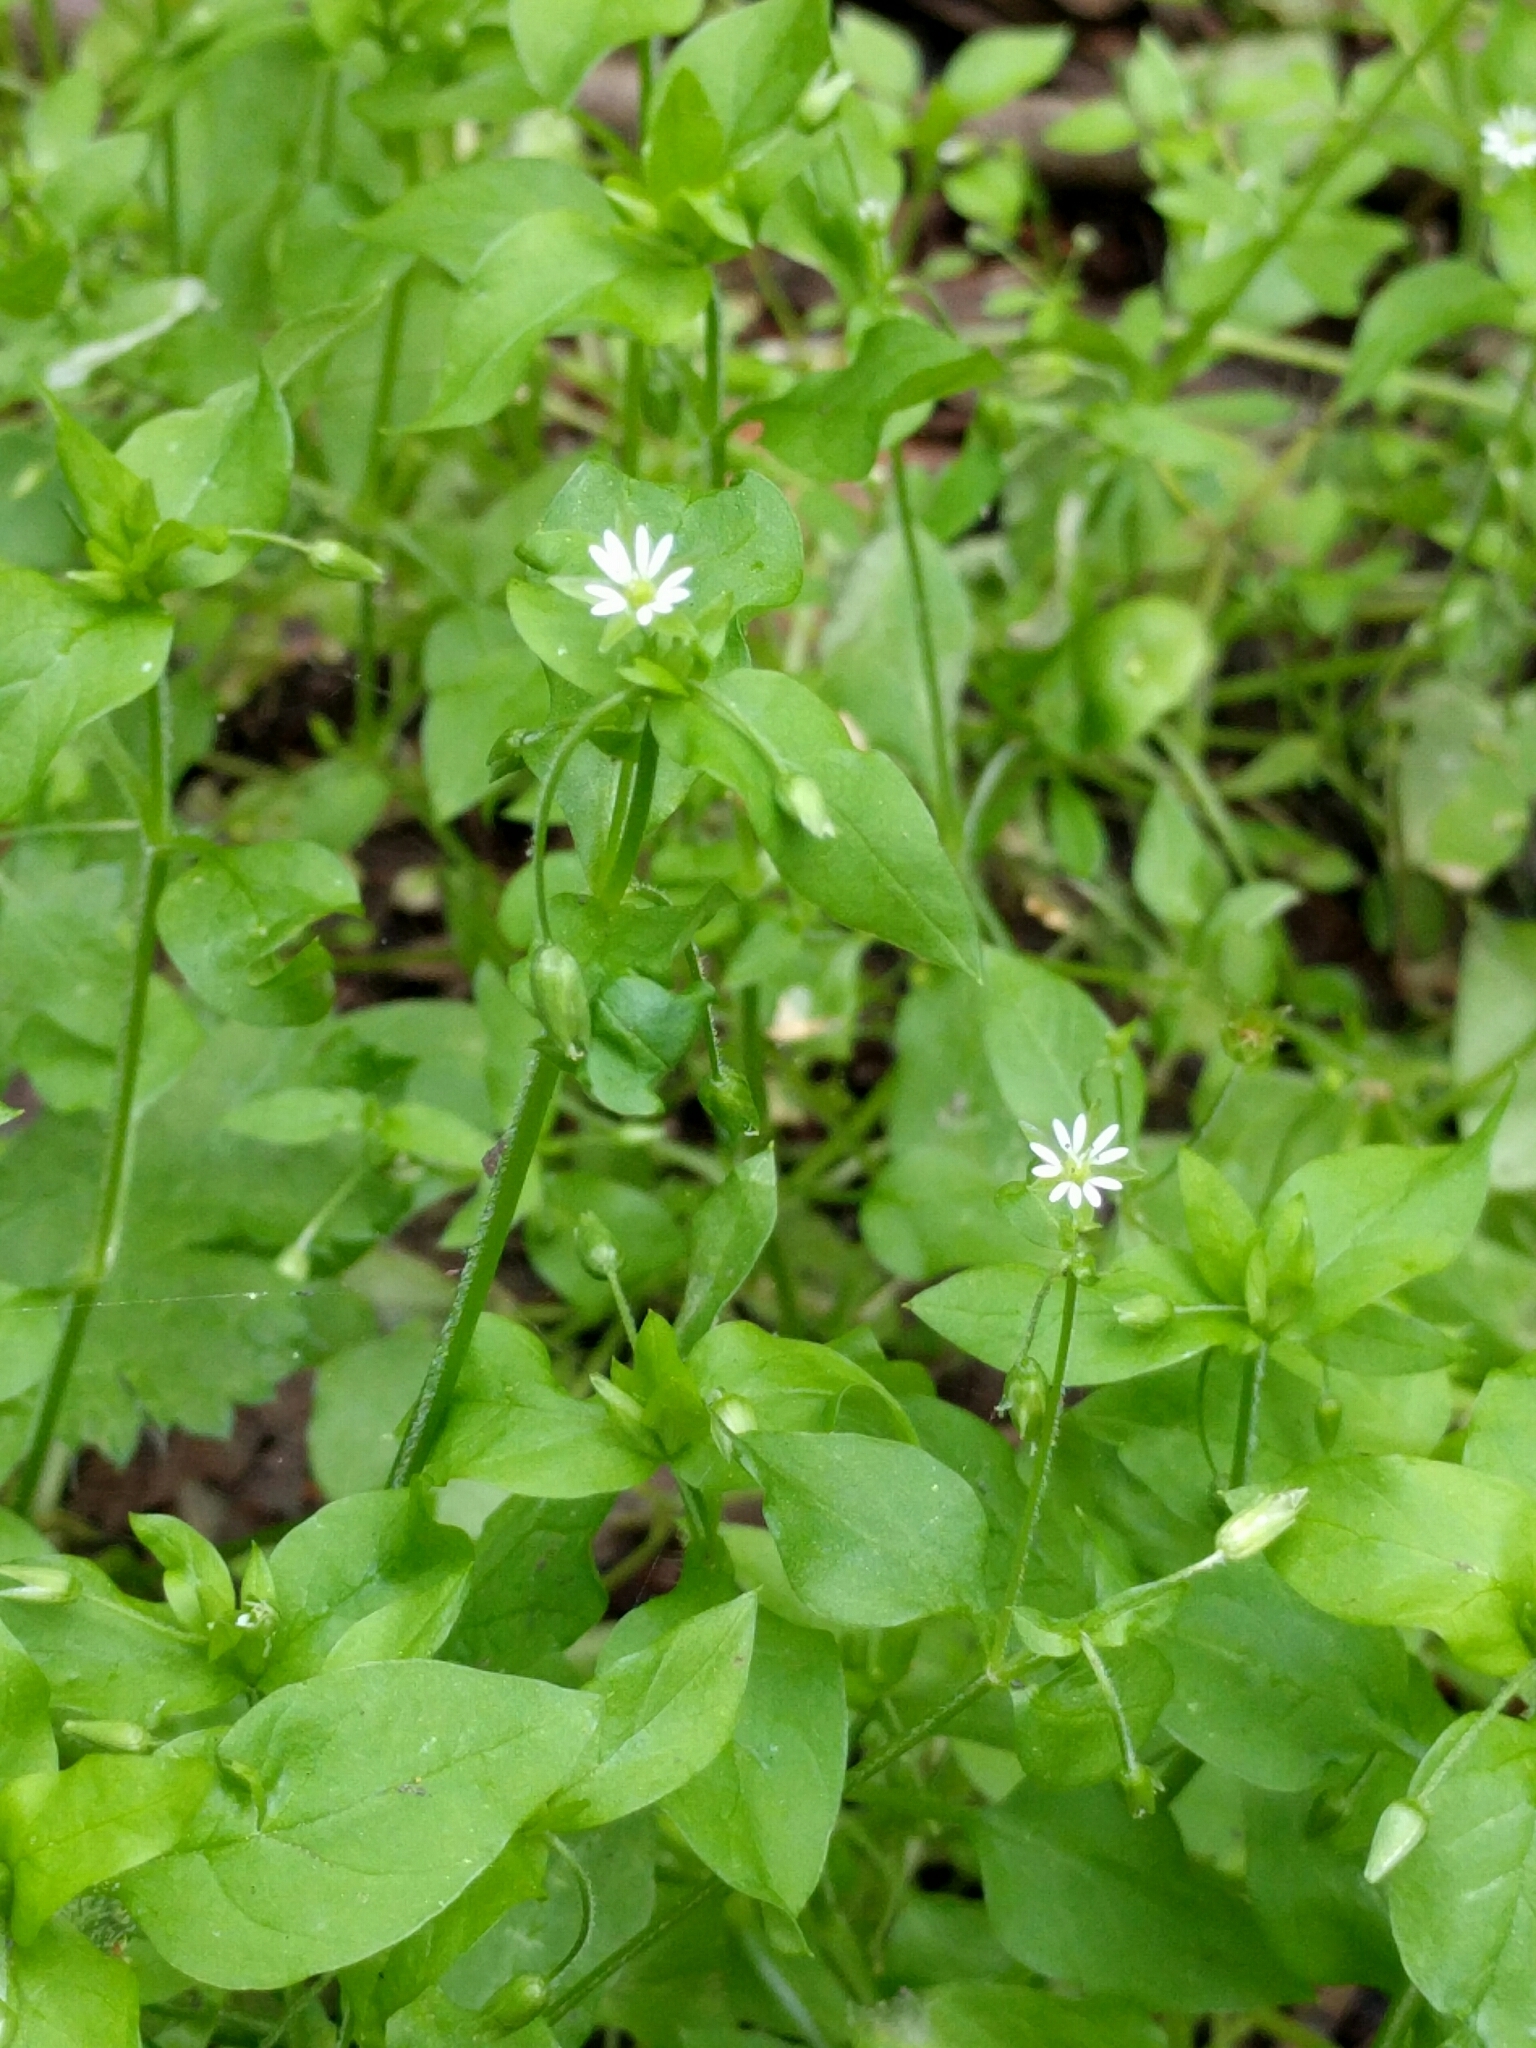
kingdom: Plantae
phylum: Tracheophyta
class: Magnoliopsida
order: Caryophyllales
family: Caryophyllaceae
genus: Stellaria
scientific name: Stellaria media
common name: Common chickweed
